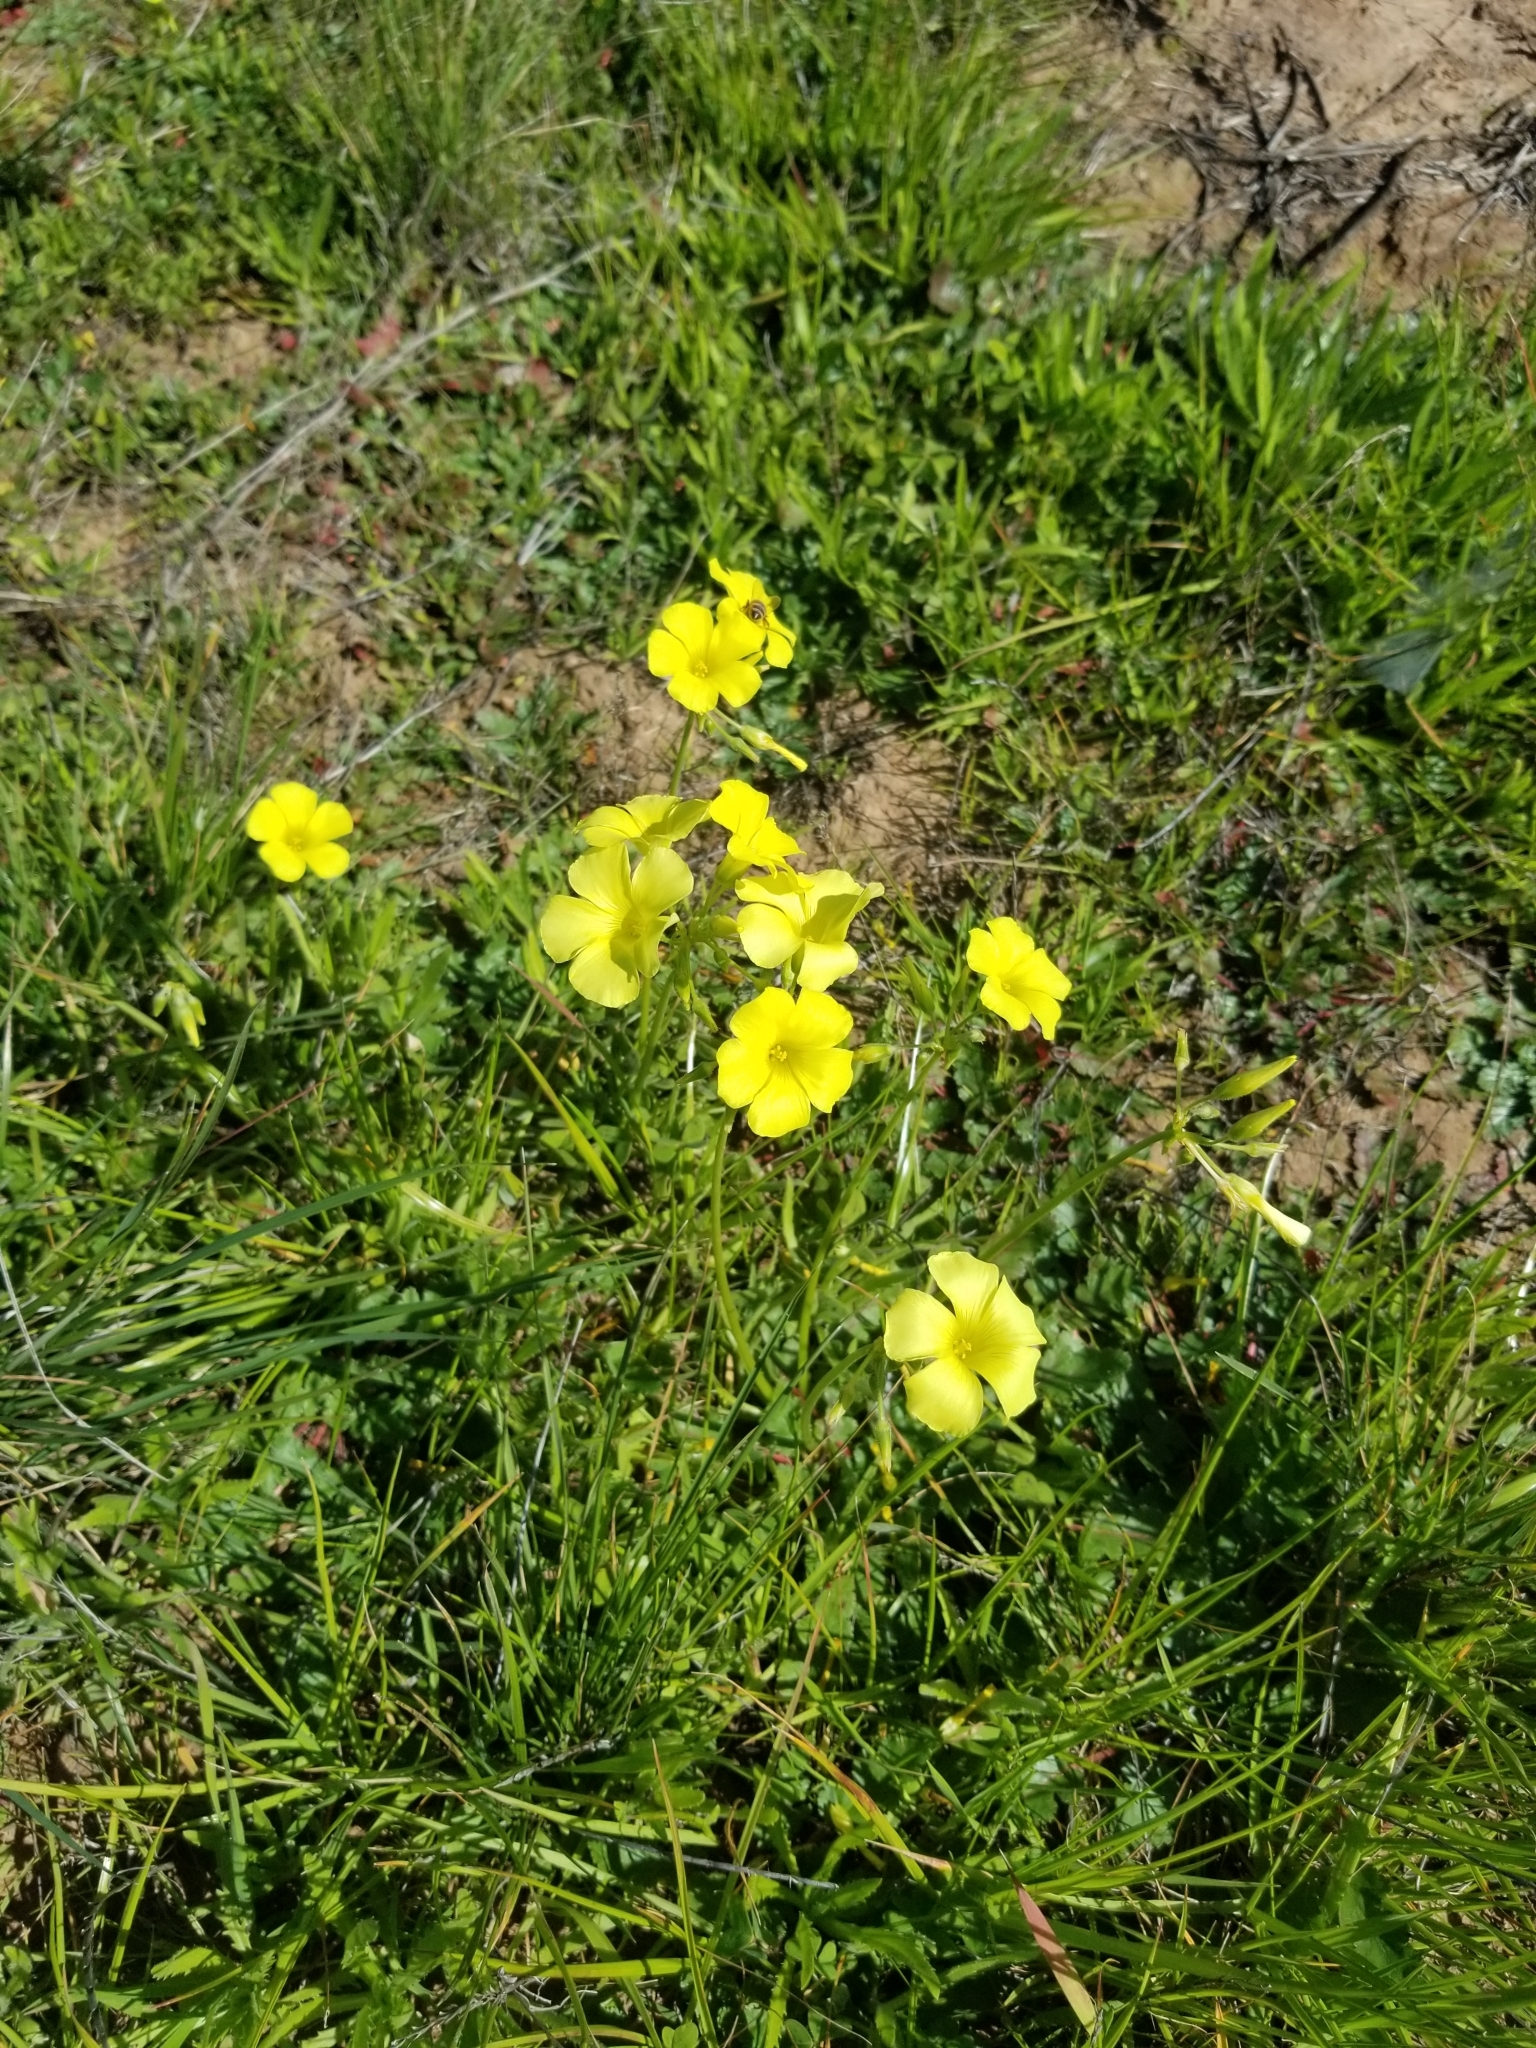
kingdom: Plantae
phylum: Tracheophyta
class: Magnoliopsida
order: Oxalidales
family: Oxalidaceae
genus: Oxalis
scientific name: Oxalis pes-caprae
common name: Bermuda-buttercup
